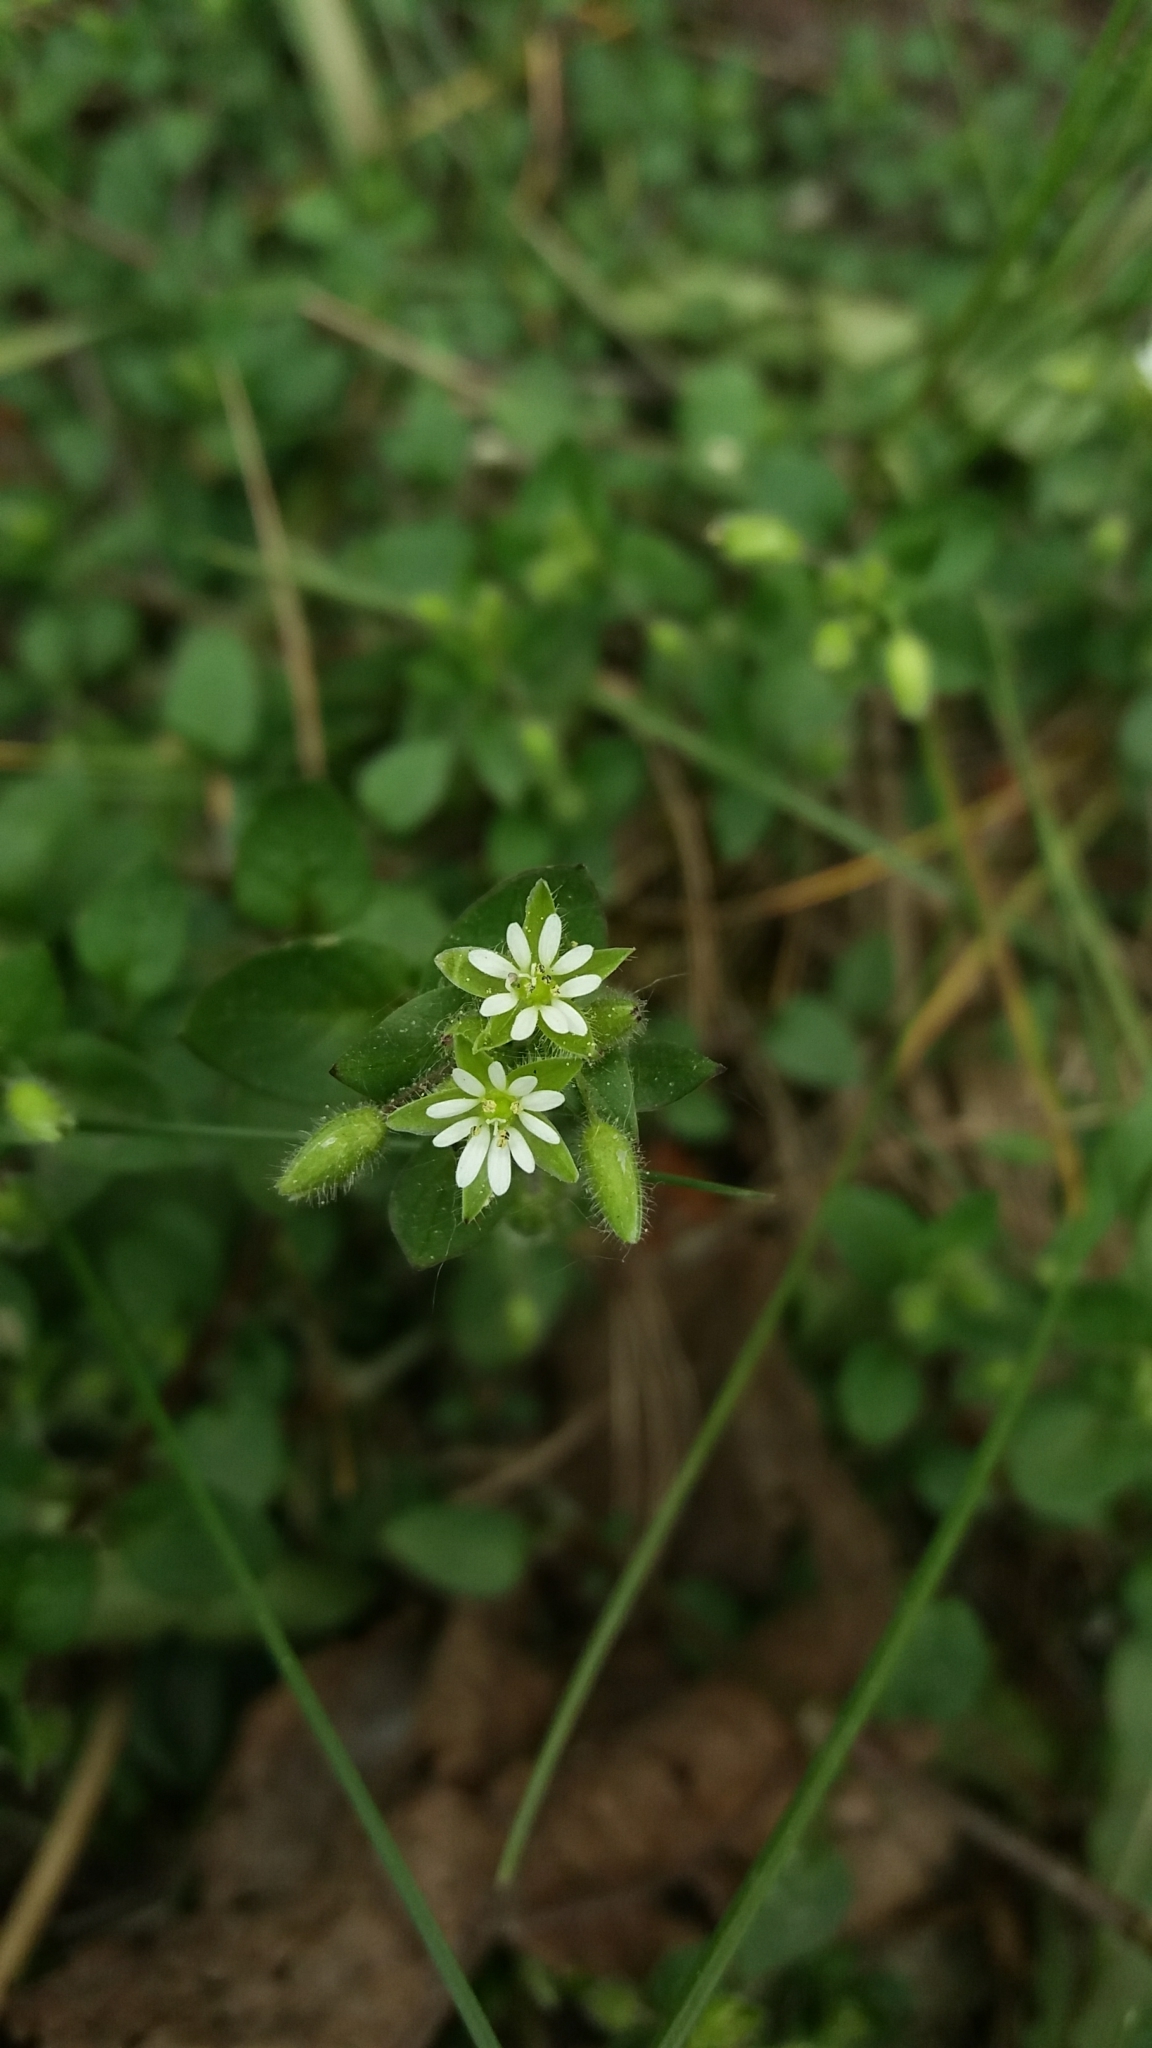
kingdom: Plantae
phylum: Tracheophyta
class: Magnoliopsida
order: Caryophyllales
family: Caryophyllaceae
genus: Stellaria
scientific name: Stellaria media
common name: Common chickweed
